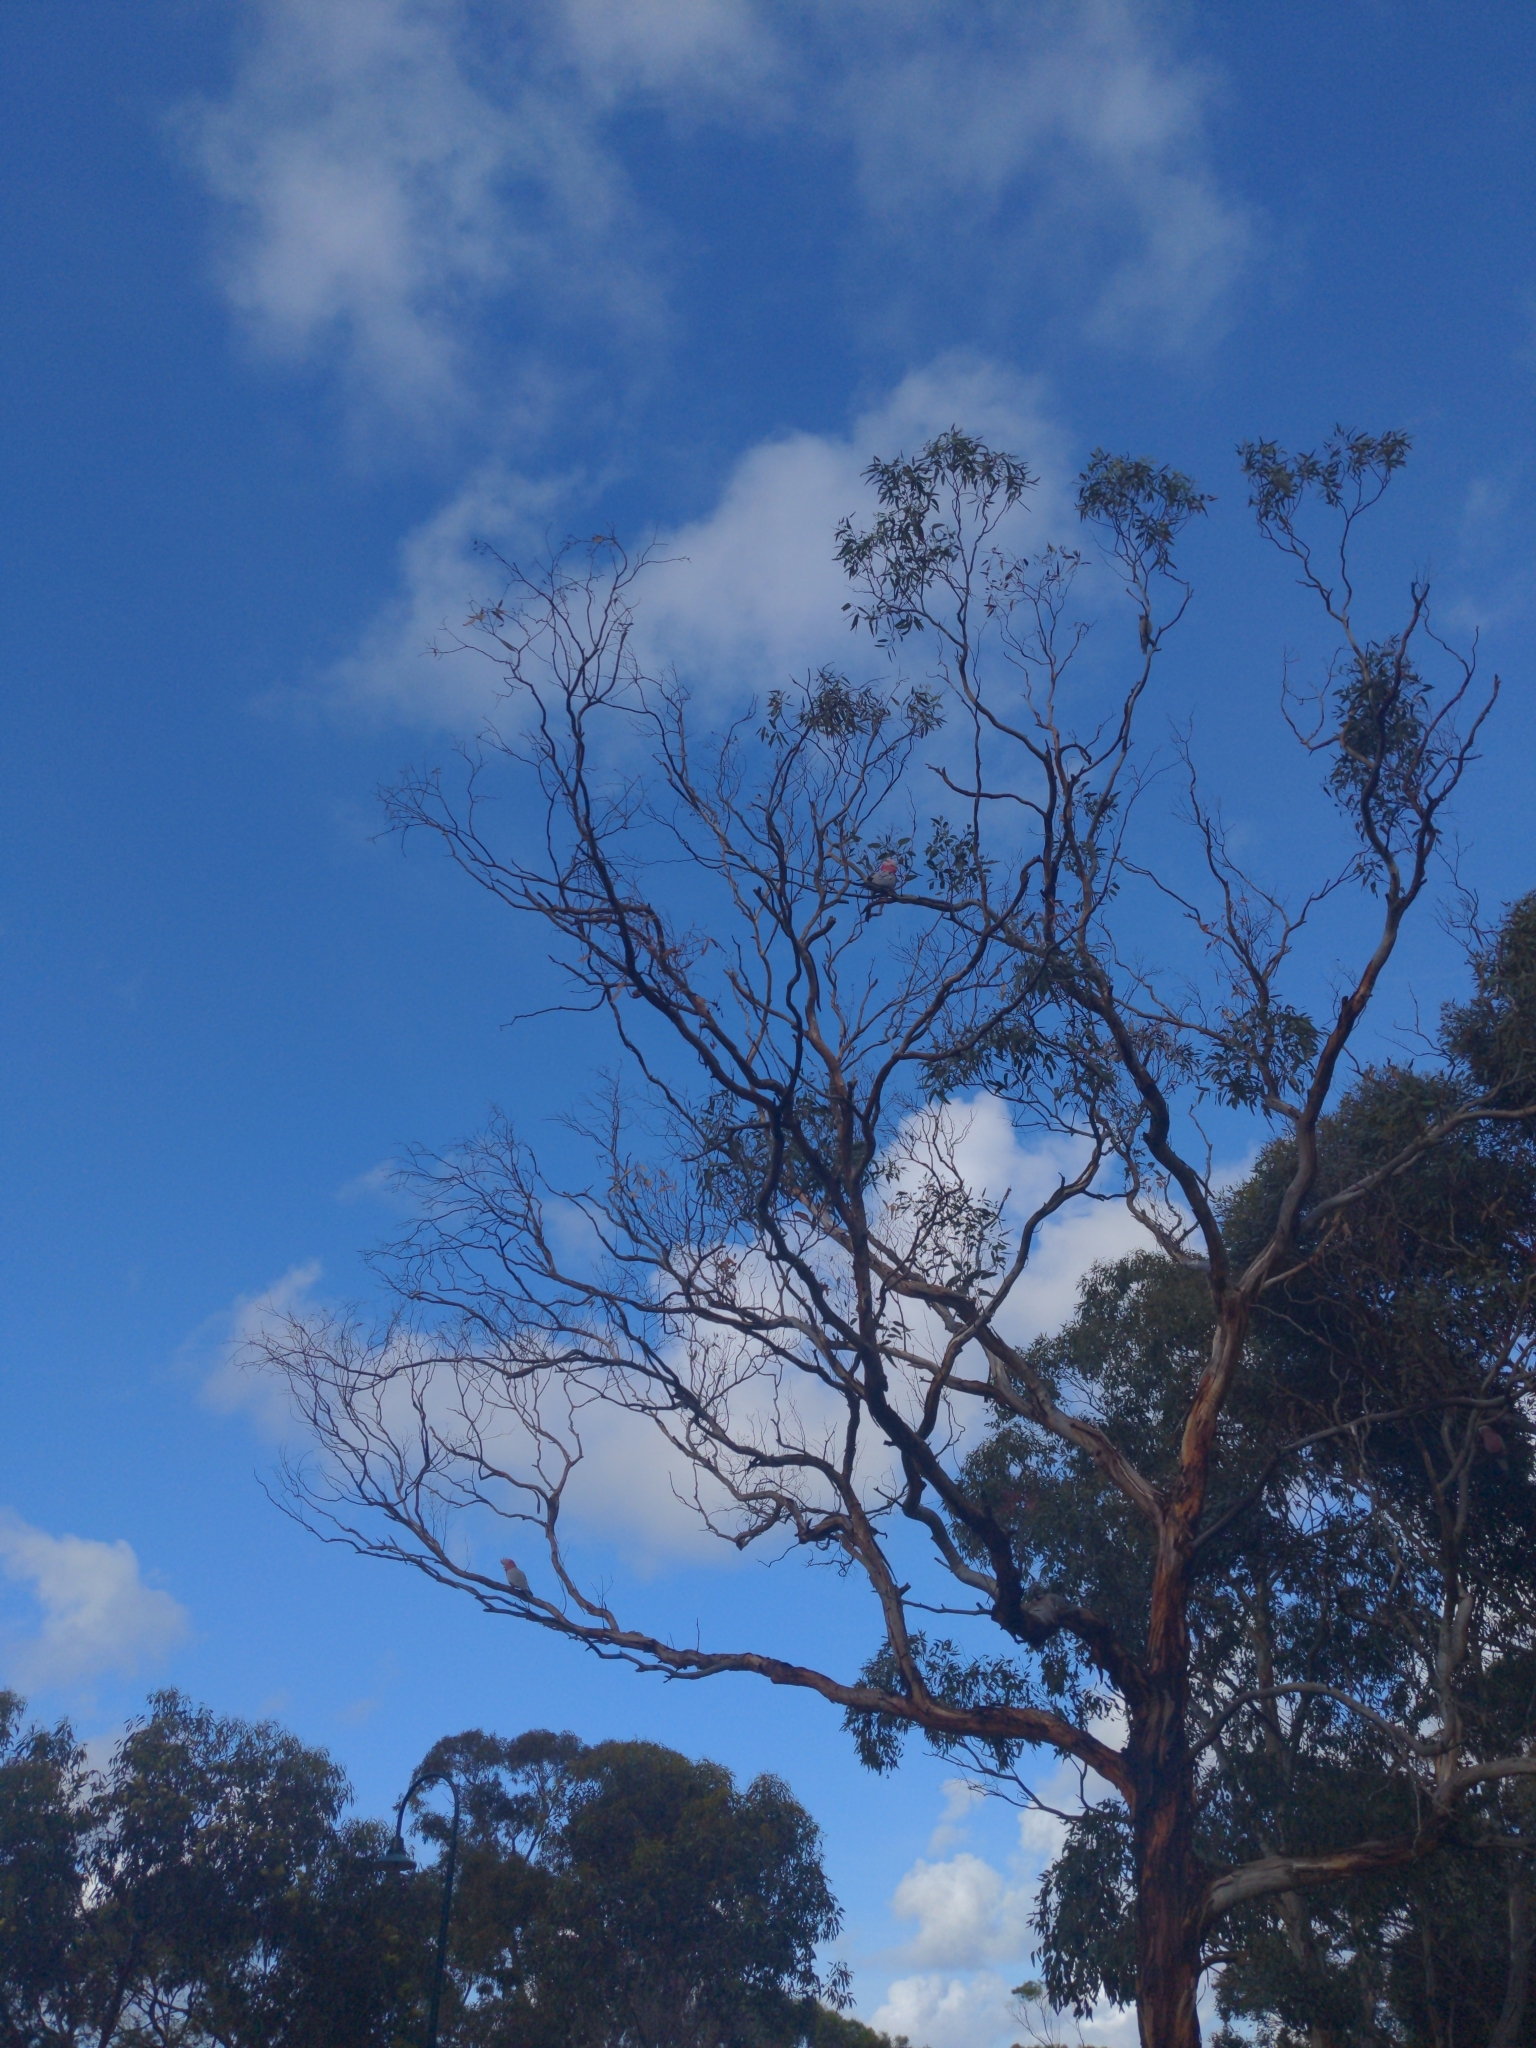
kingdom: Animalia
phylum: Chordata
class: Aves
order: Psittaciformes
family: Psittacidae
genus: Eolophus
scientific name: Eolophus roseicapilla
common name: Galah
